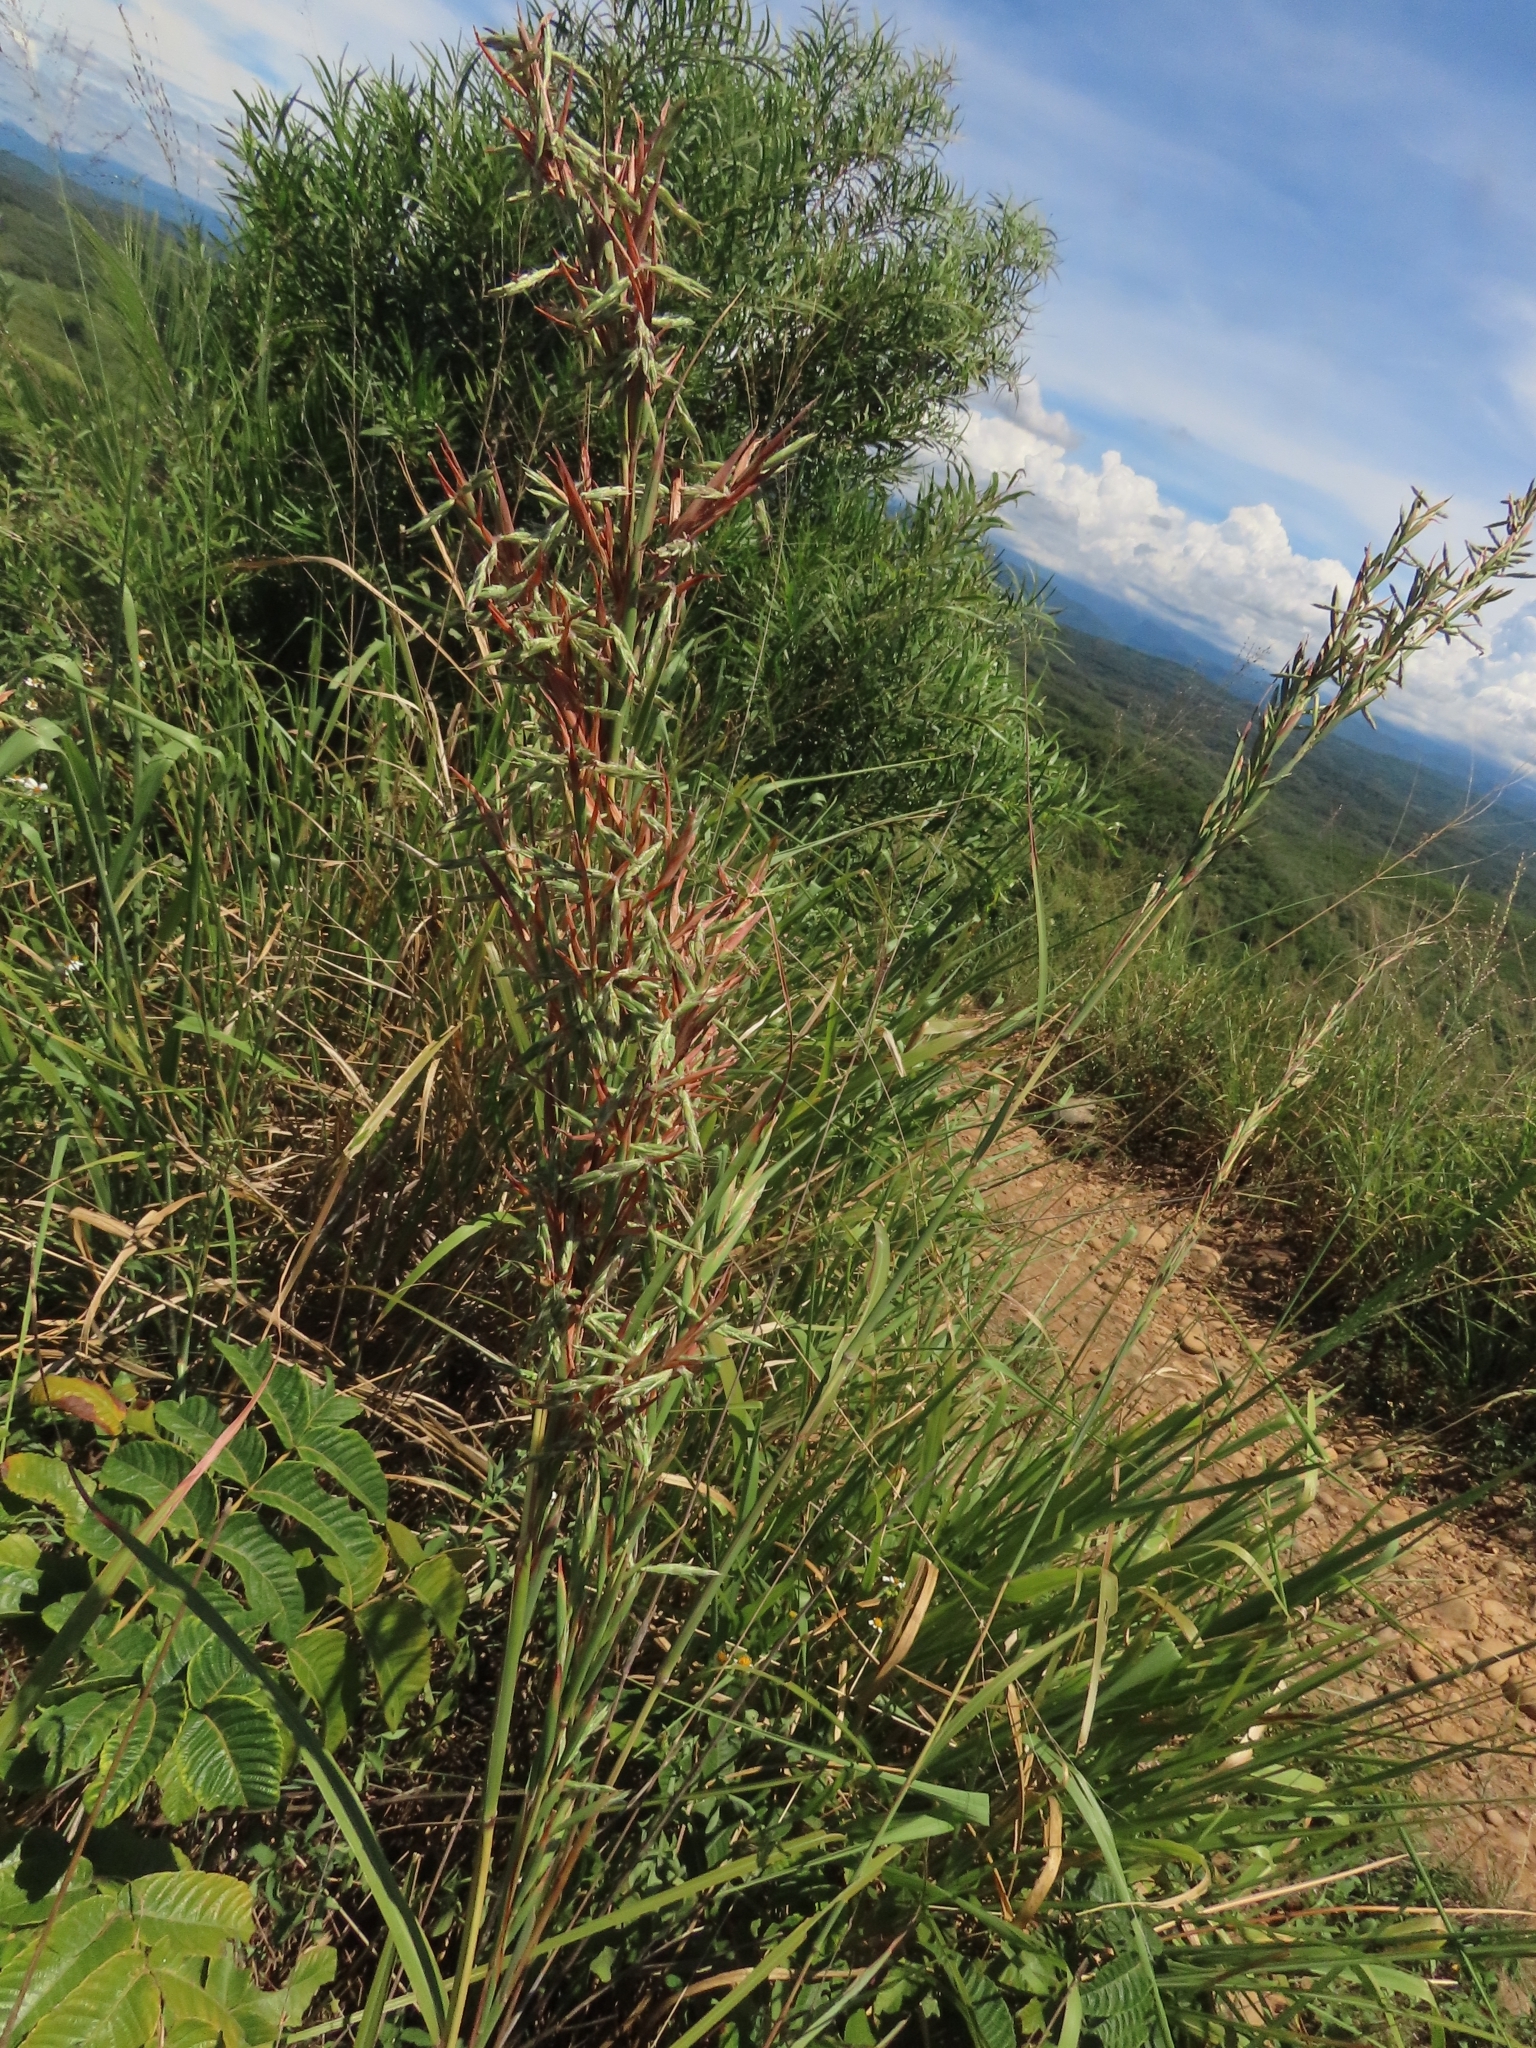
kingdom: Plantae
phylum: Tracheophyta
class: Liliopsida
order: Poales
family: Poaceae
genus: Cymbopogon
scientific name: Cymbopogon tortilis
